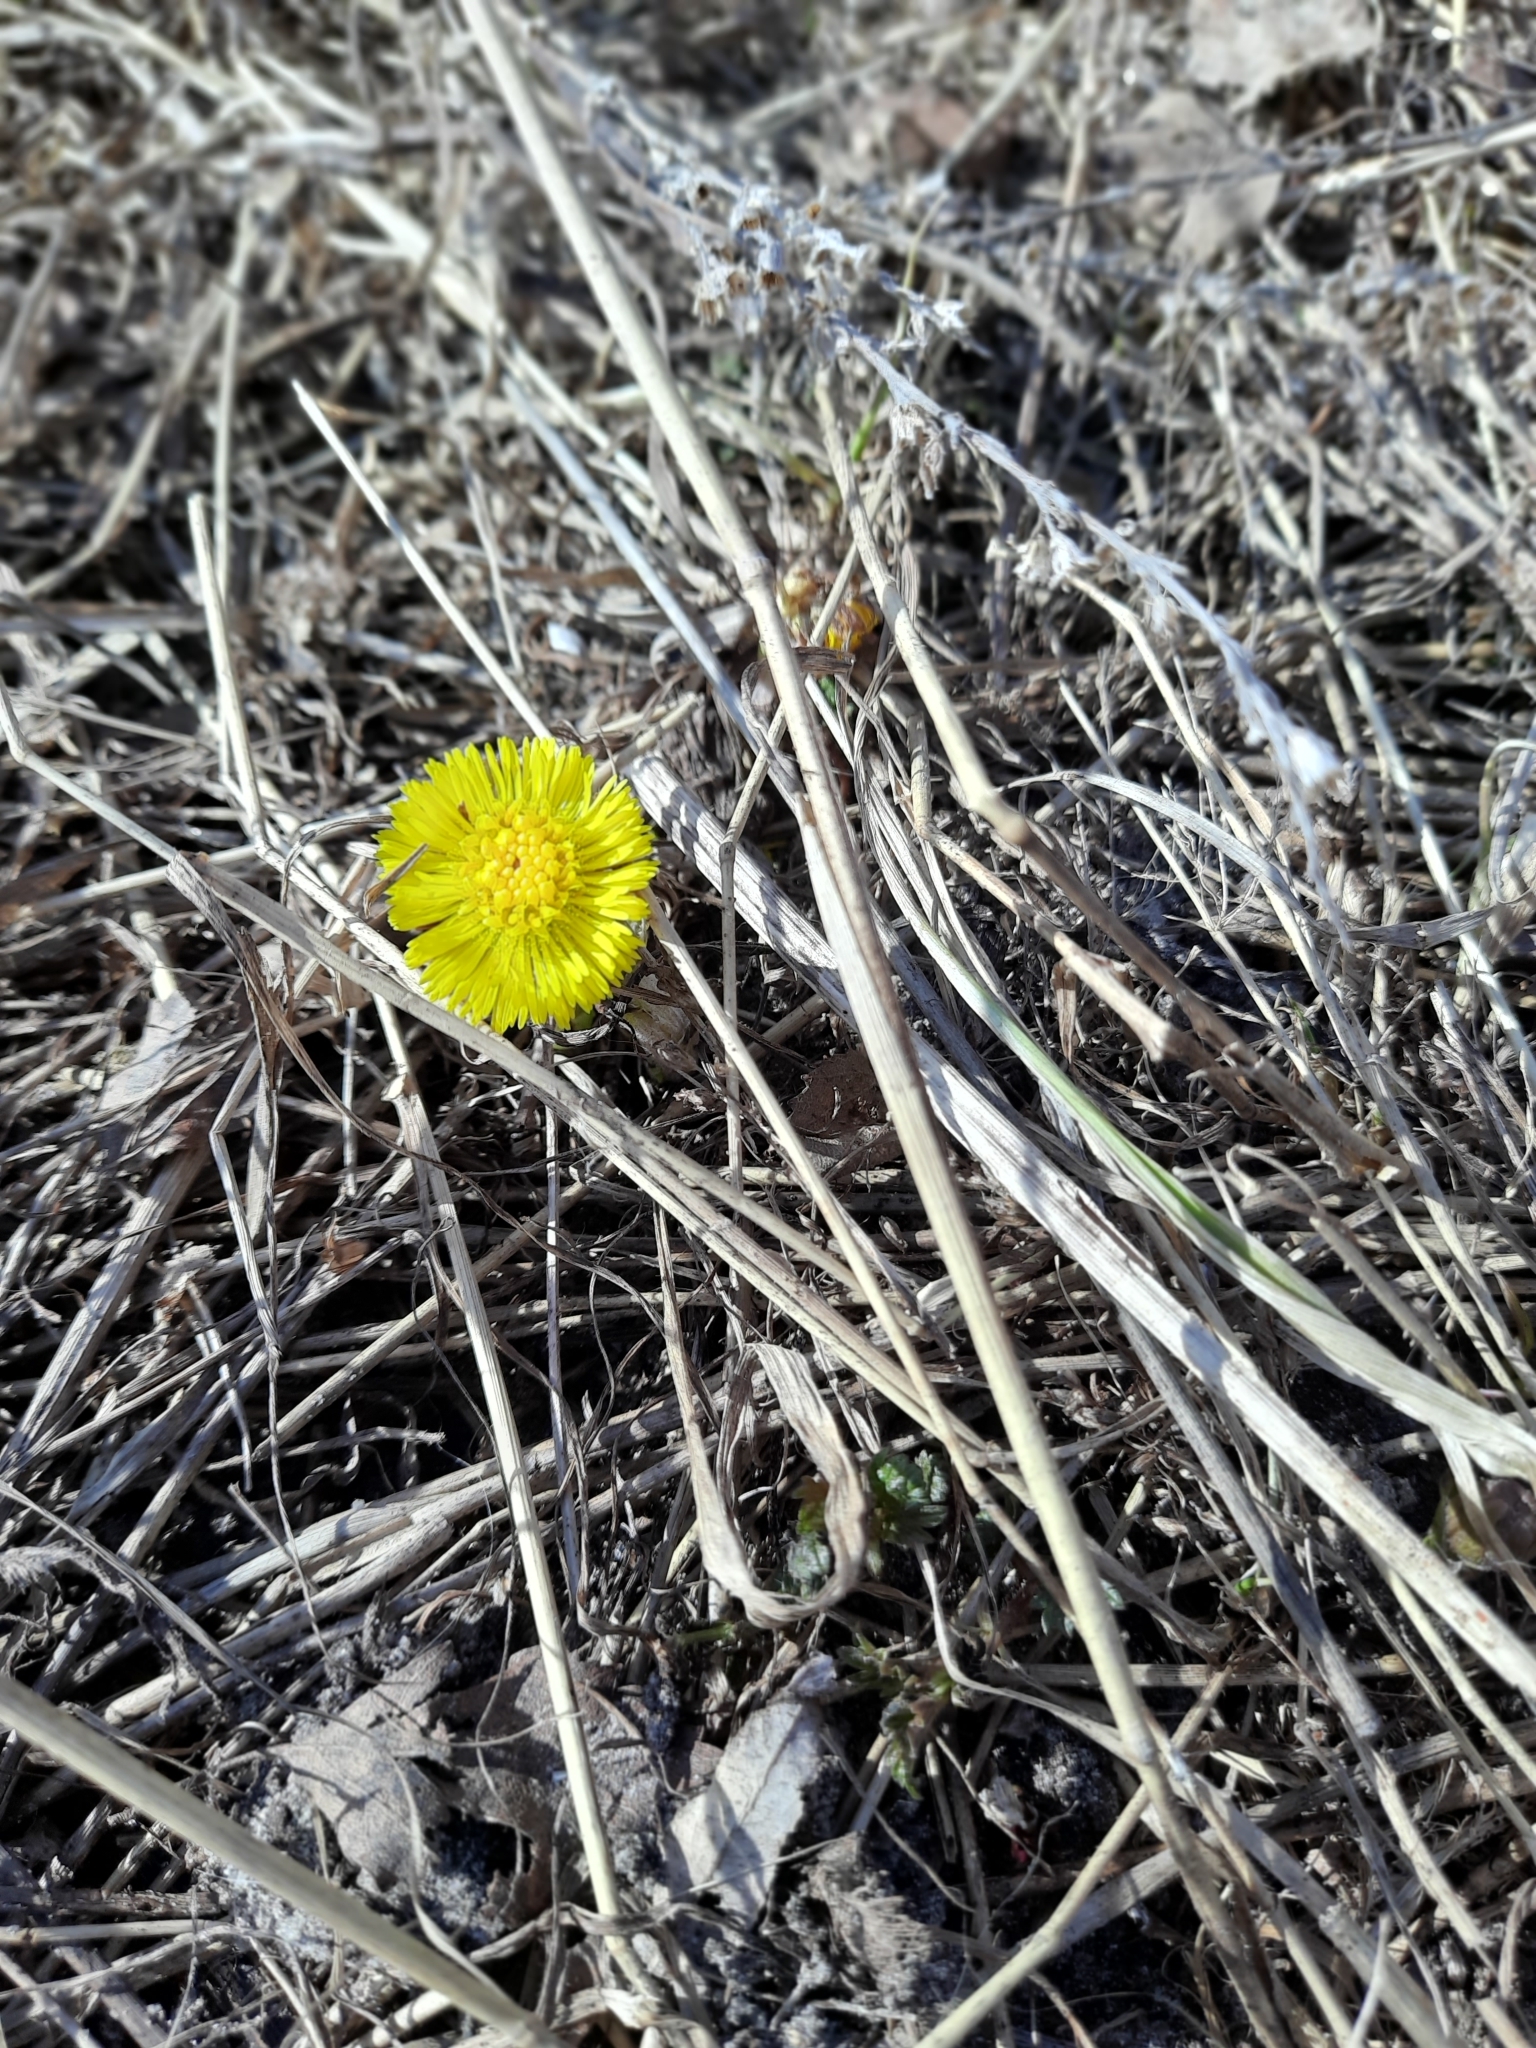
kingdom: Plantae
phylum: Tracheophyta
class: Magnoliopsida
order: Asterales
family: Asteraceae
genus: Tussilago
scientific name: Tussilago farfara
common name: Coltsfoot
